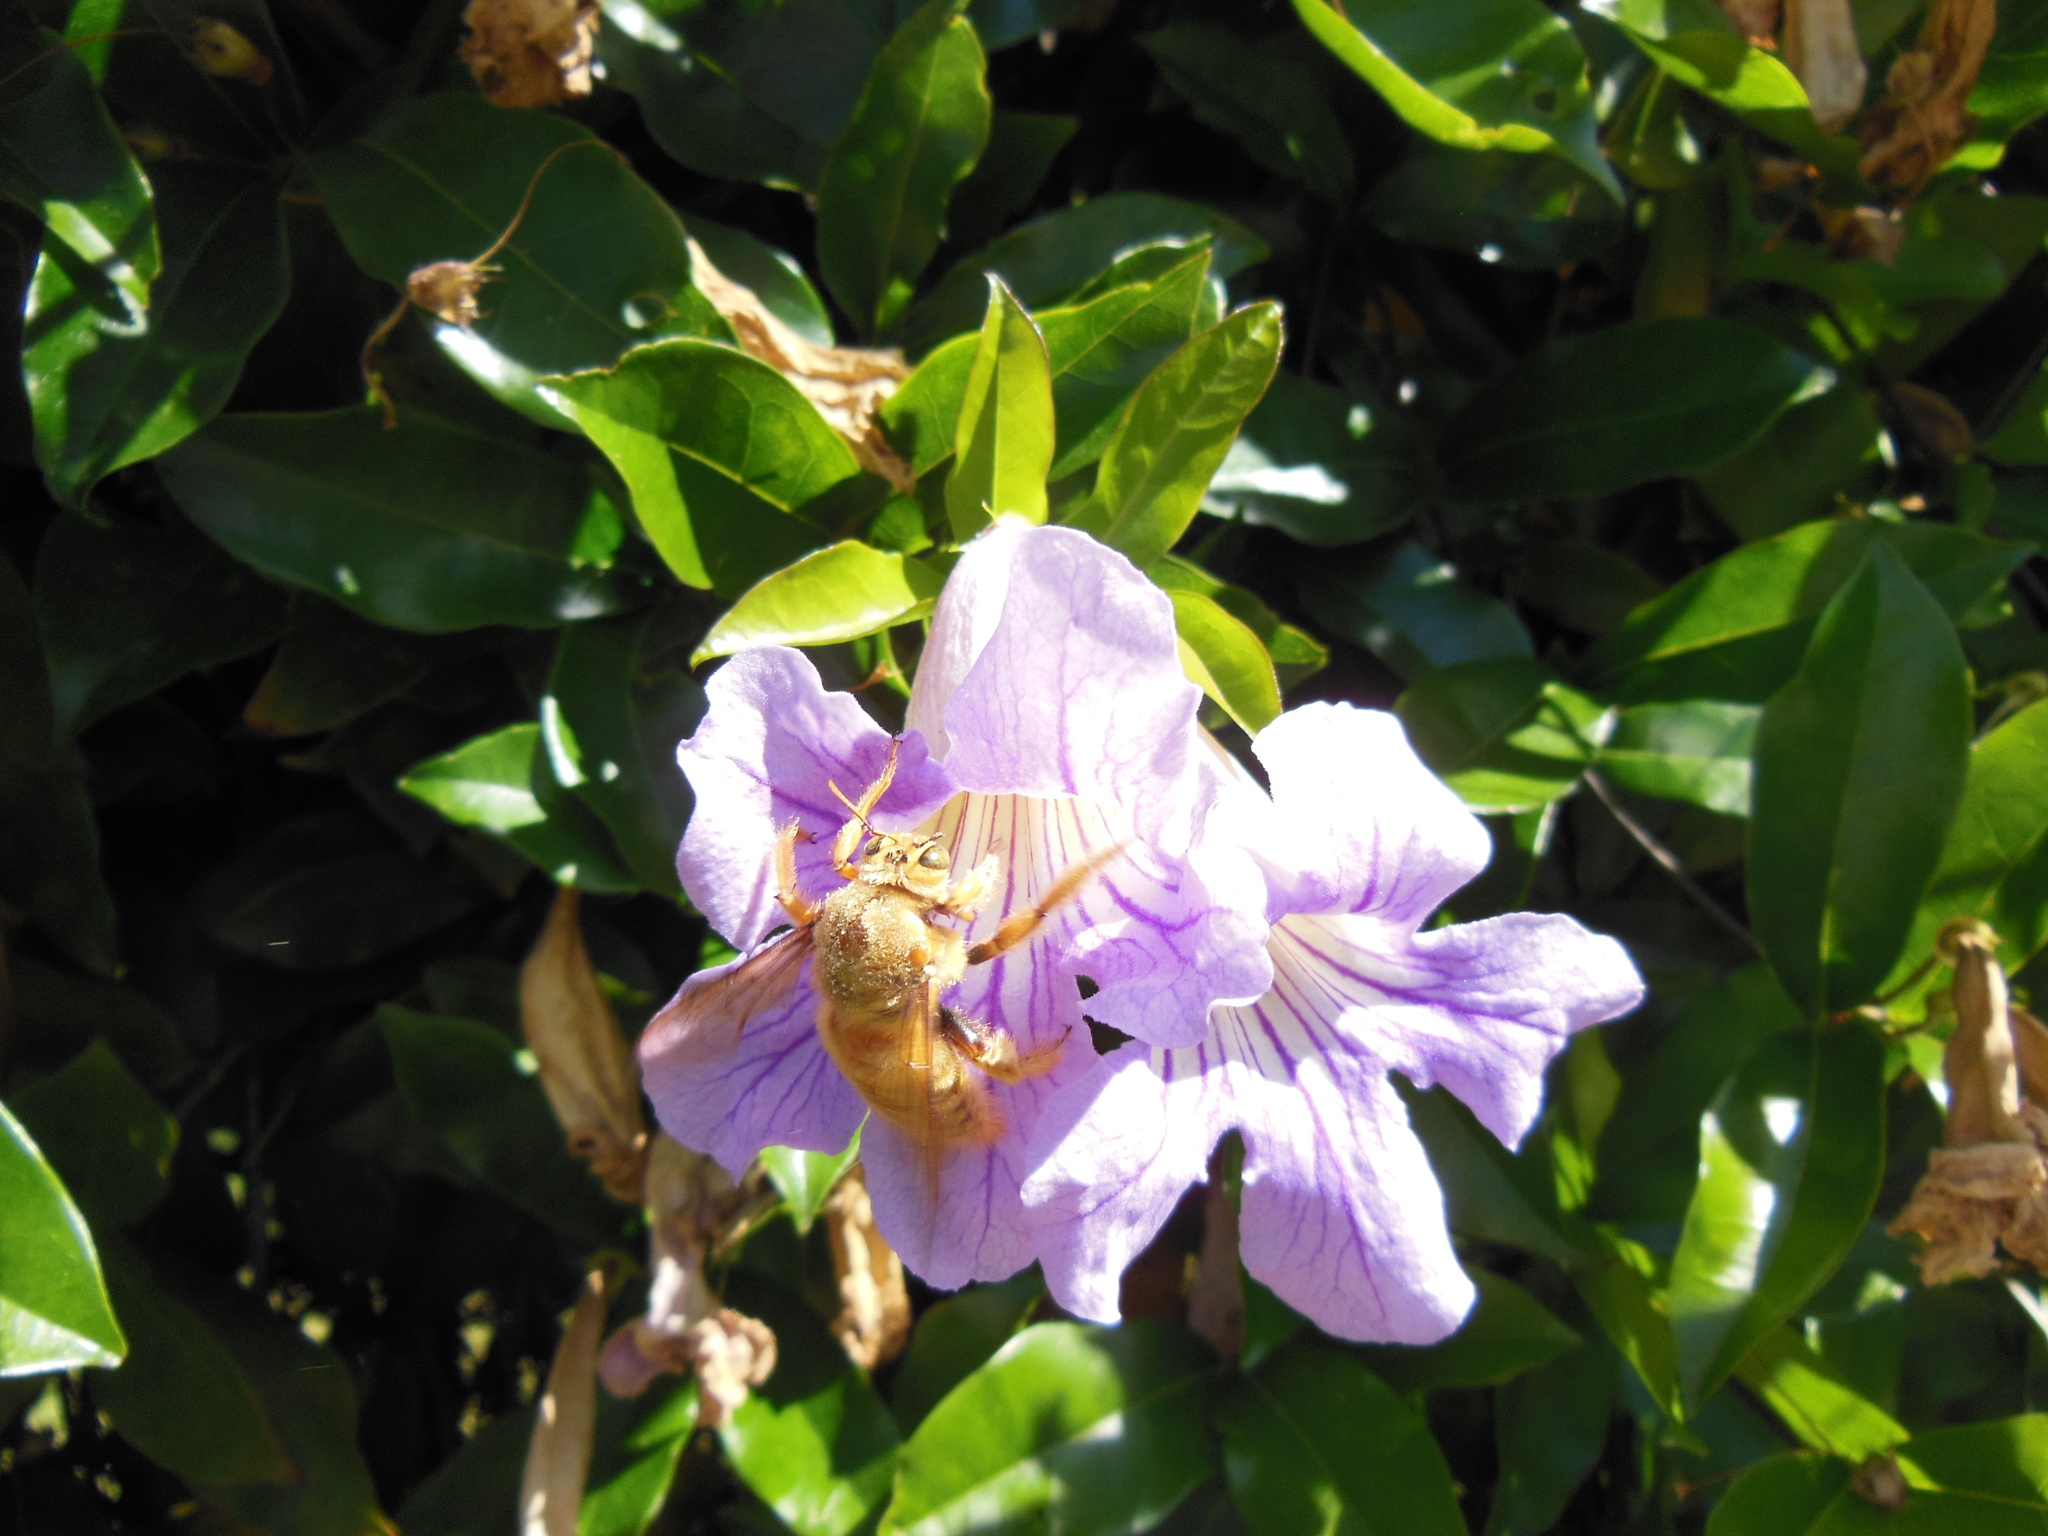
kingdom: Animalia
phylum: Arthropoda
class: Insecta
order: Hymenoptera
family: Apidae
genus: Xylocopa
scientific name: Xylocopa sonorina
